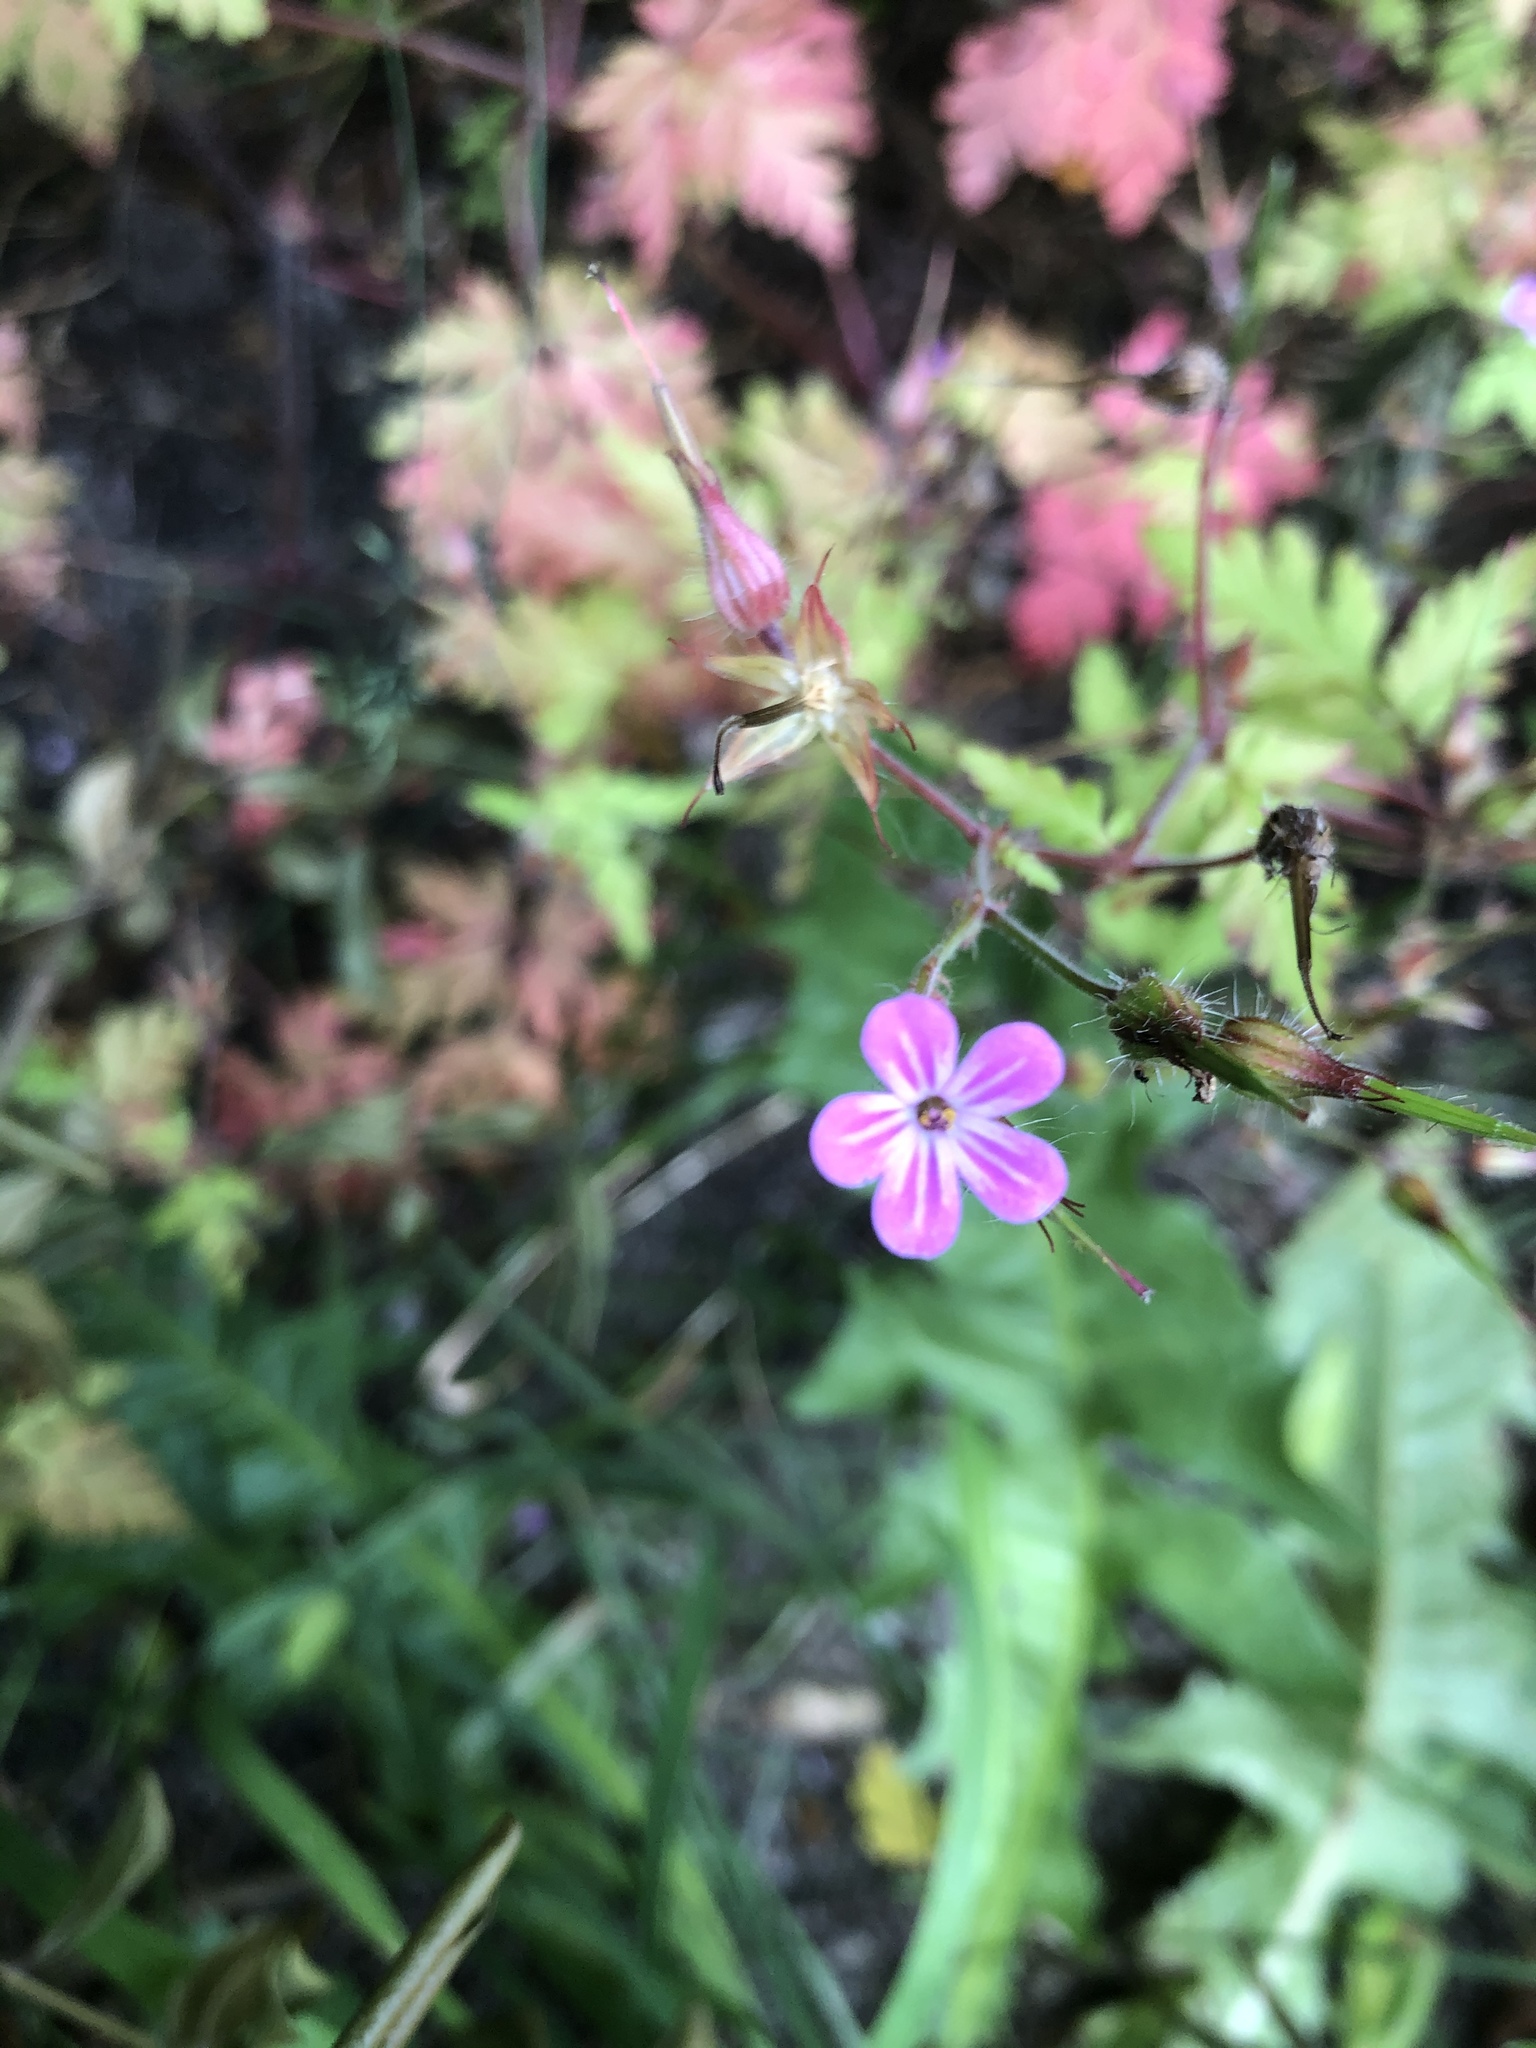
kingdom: Plantae
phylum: Tracheophyta
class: Magnoliopsida
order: Geraniales
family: Geraniaceae
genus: Geranium
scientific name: Geranium robertianum
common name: Herb-robert
